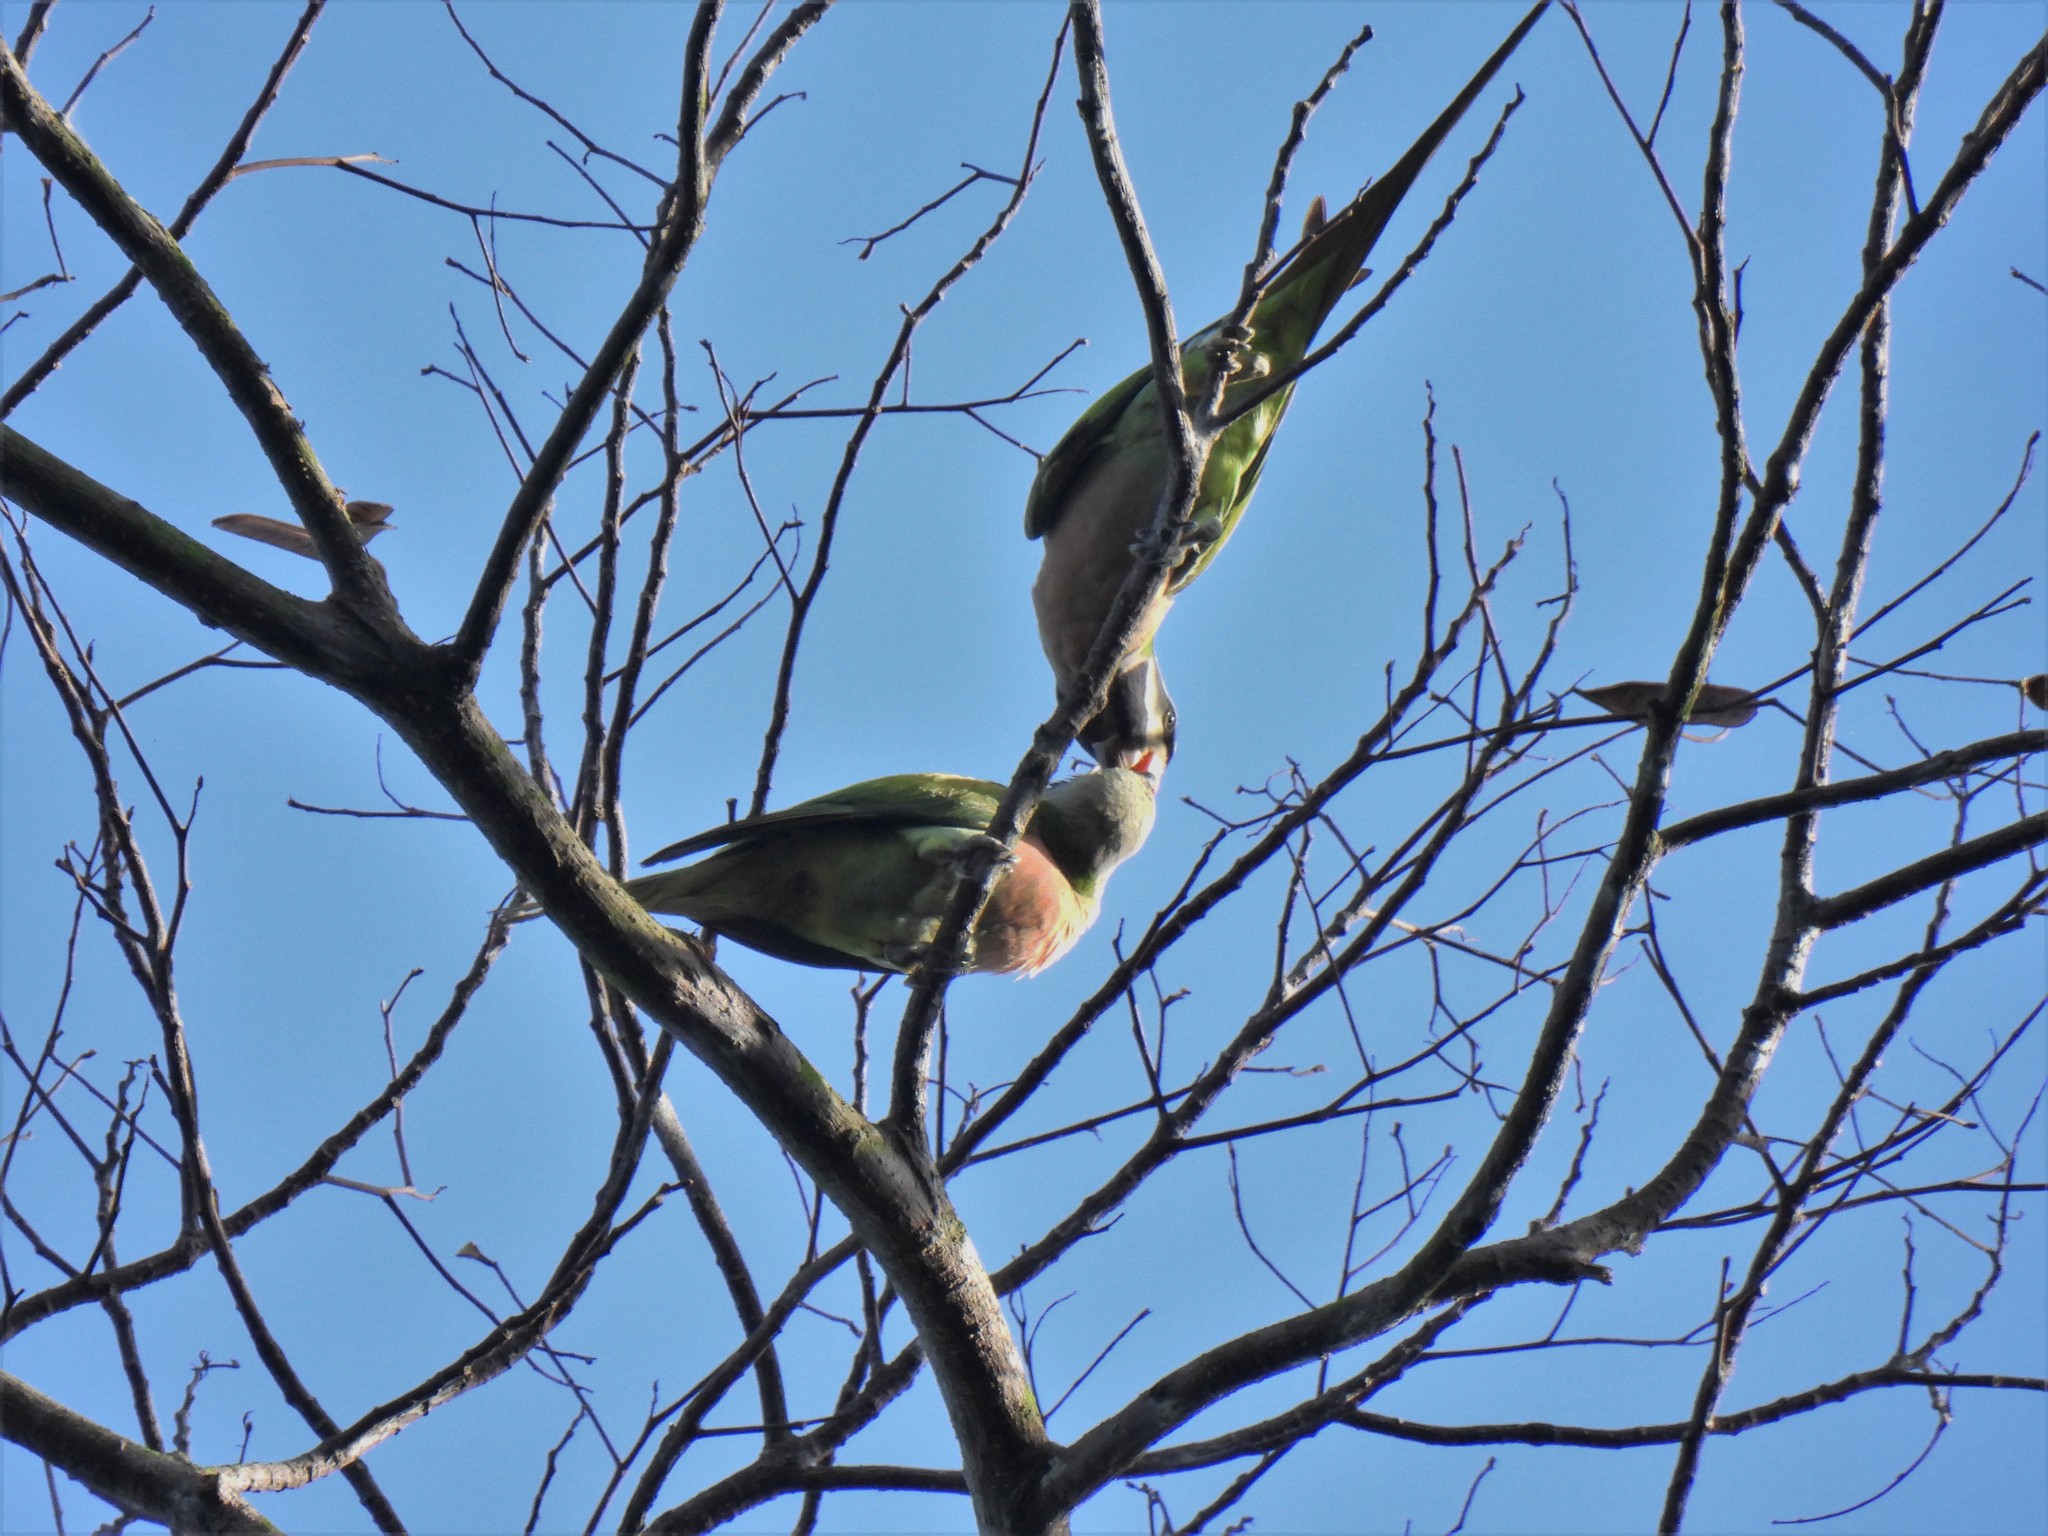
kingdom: Animalia
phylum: Chordata
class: Aves
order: Psittaciformes
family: Psittacidae
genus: Psittacula
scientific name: Psittacula alexandri
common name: Red-breasted parakeet
